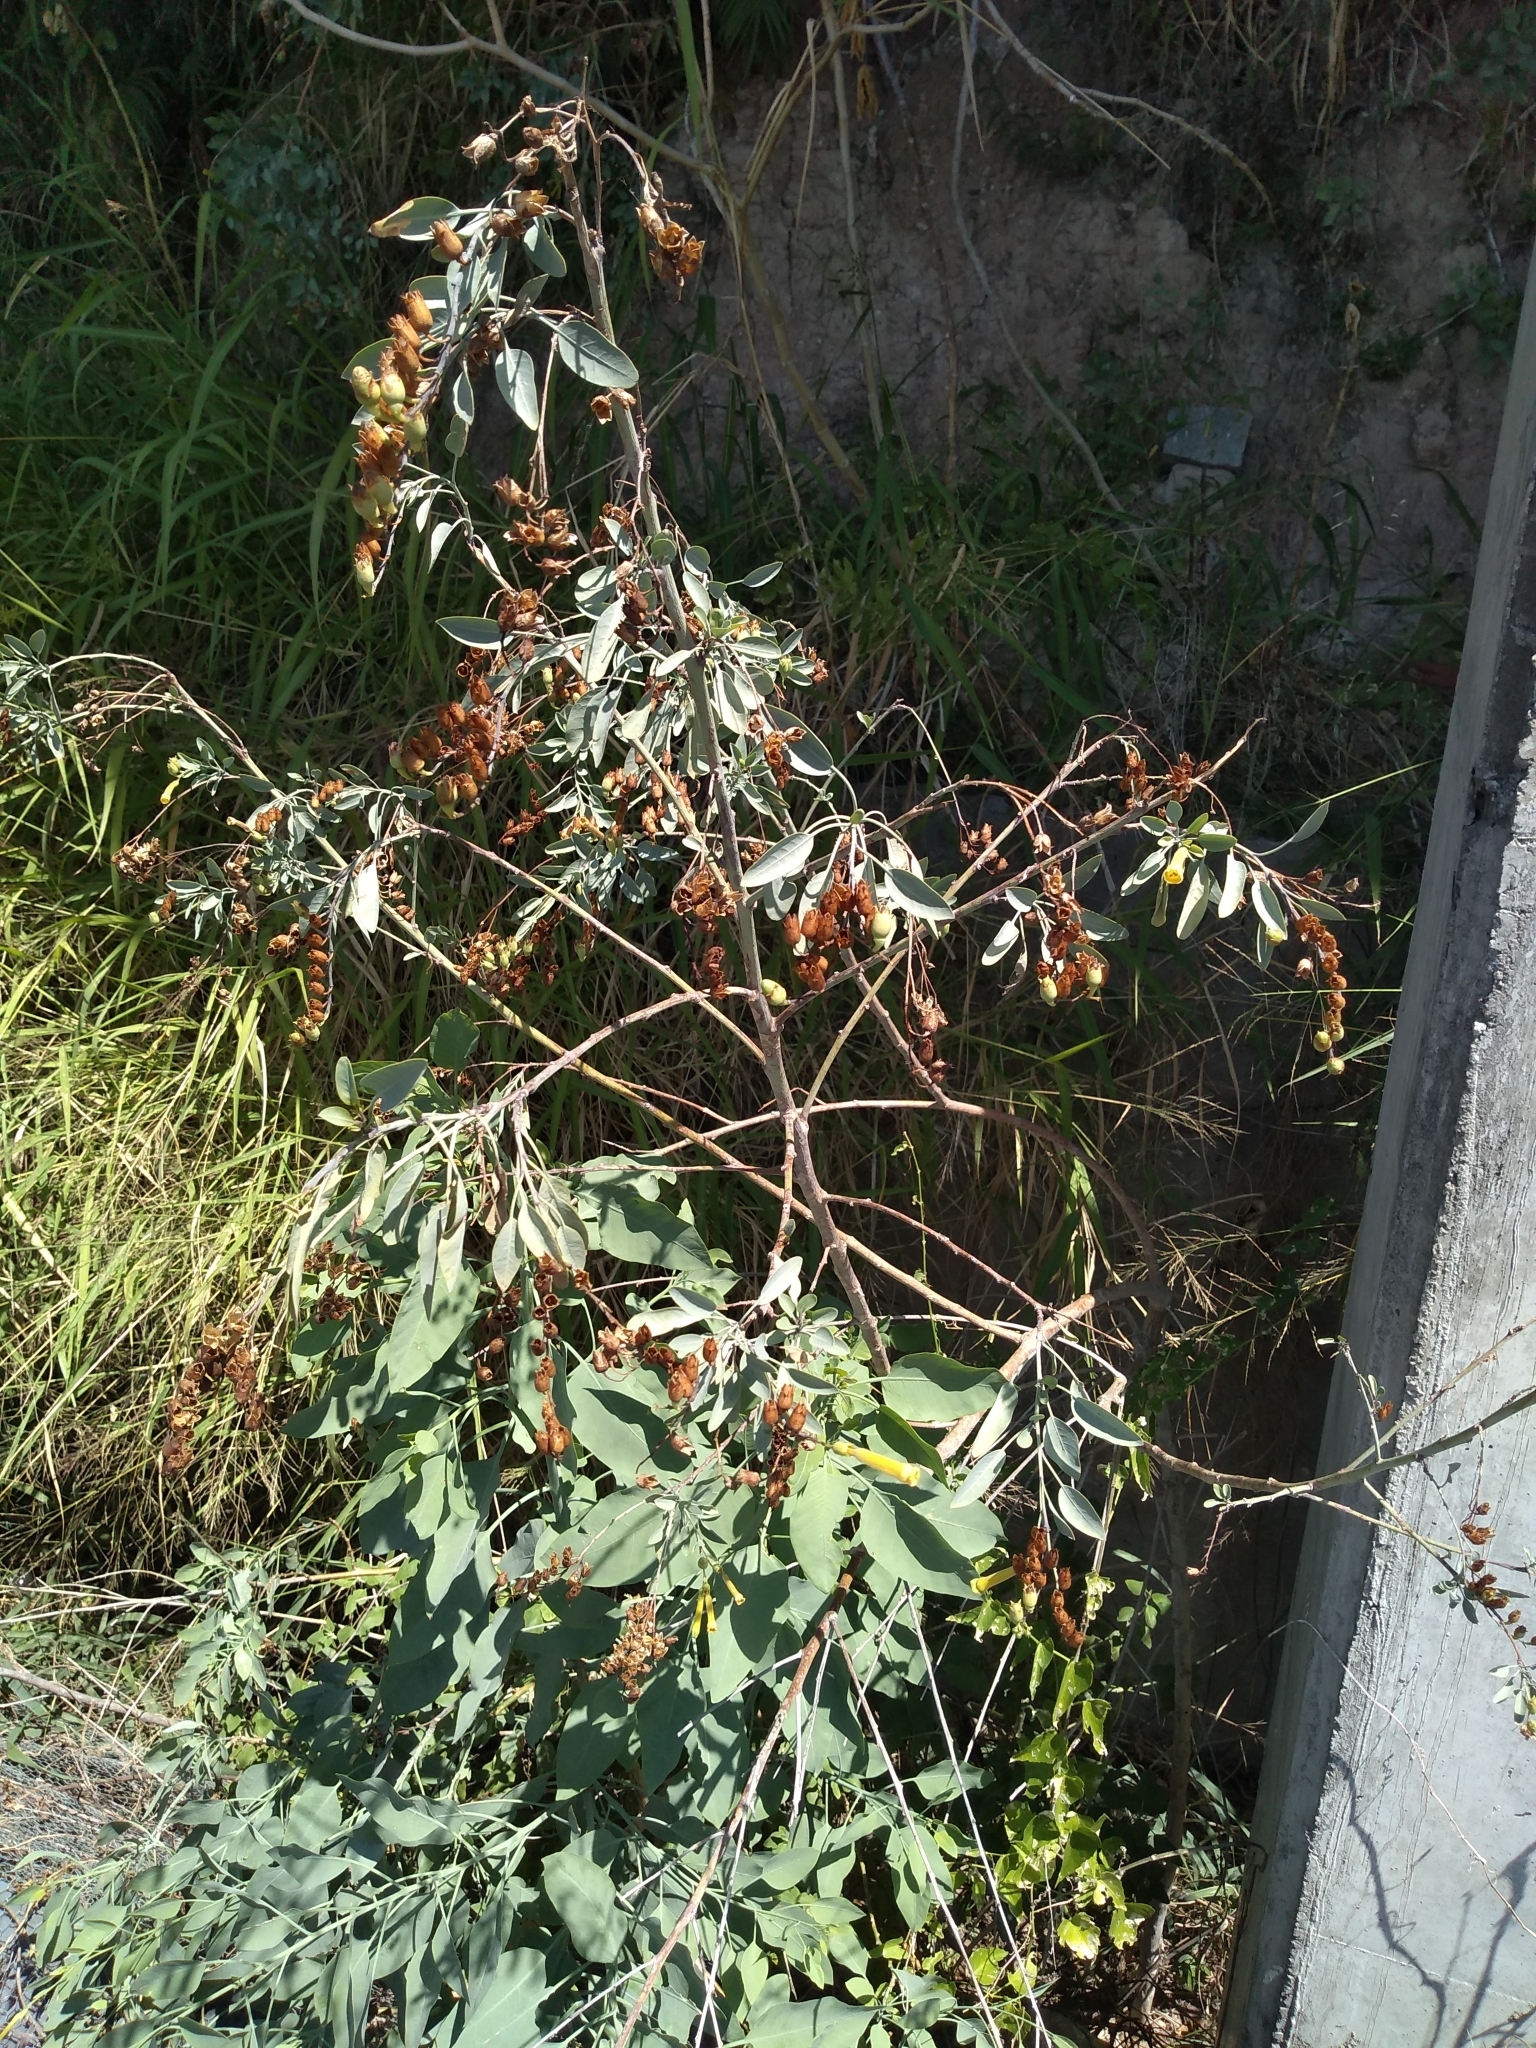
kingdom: Plantae
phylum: Tracheophyta
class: Magnoliopsida
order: Solanales
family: Solanaceae
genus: Nicotiana
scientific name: Nicotiana glauca
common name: Tree tobacco
